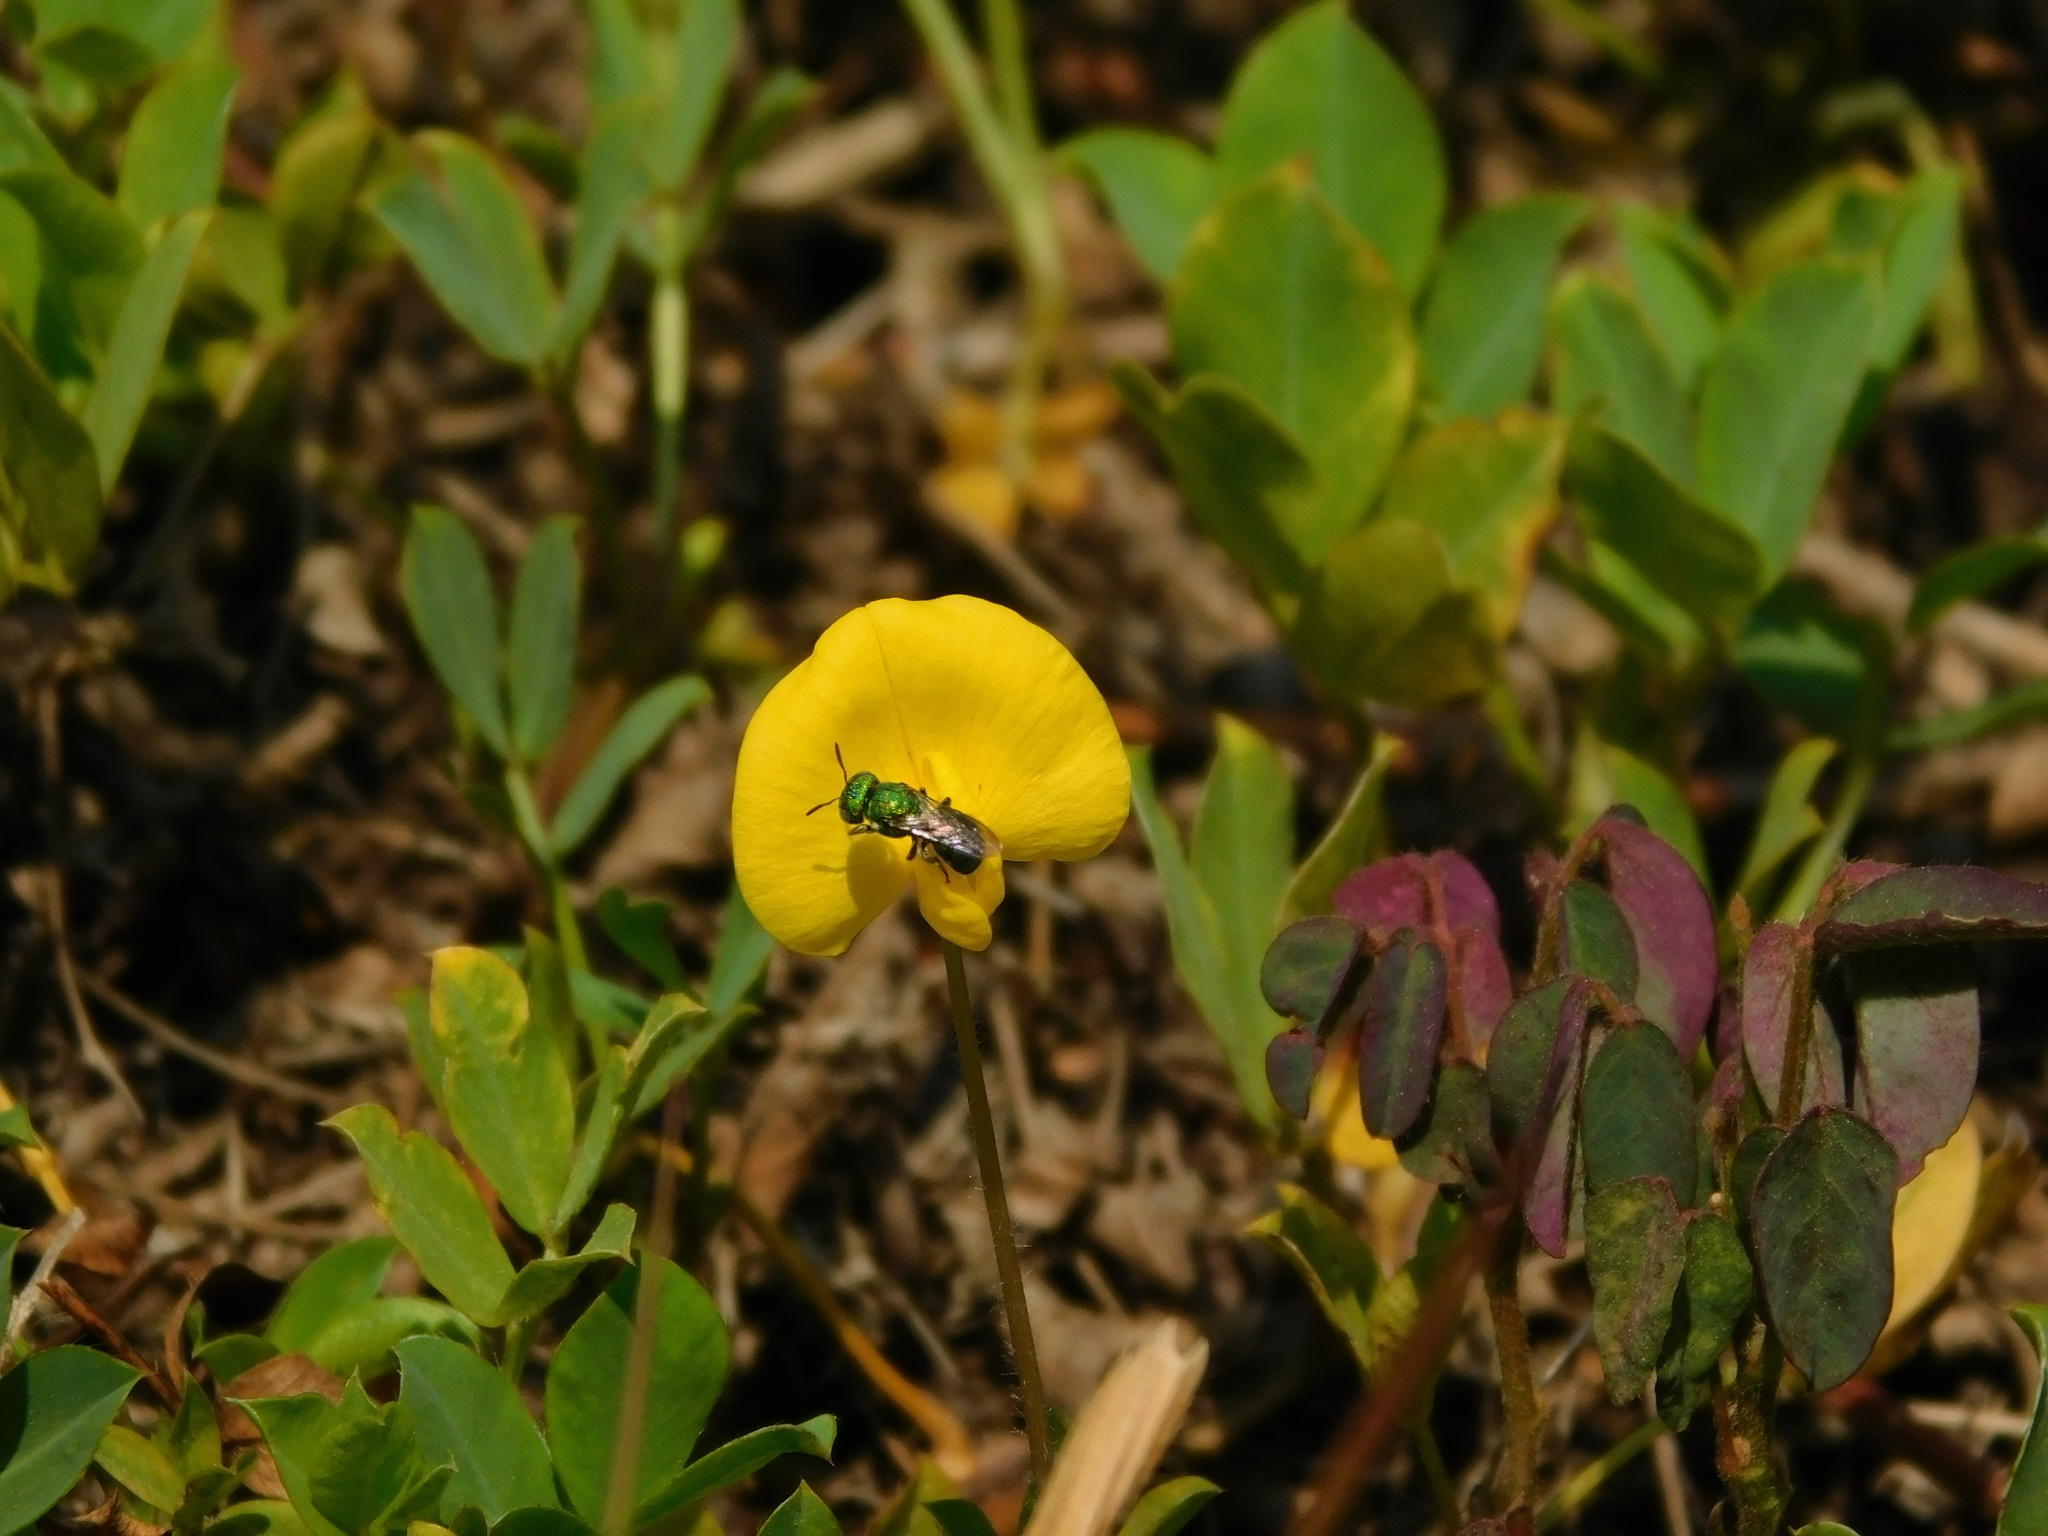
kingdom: Animalia
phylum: Arthropoda
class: Insecta
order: Hymenoptera
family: Apidae
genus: Ceratina
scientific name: Ceratina smaragdula
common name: Small carpenter bee
